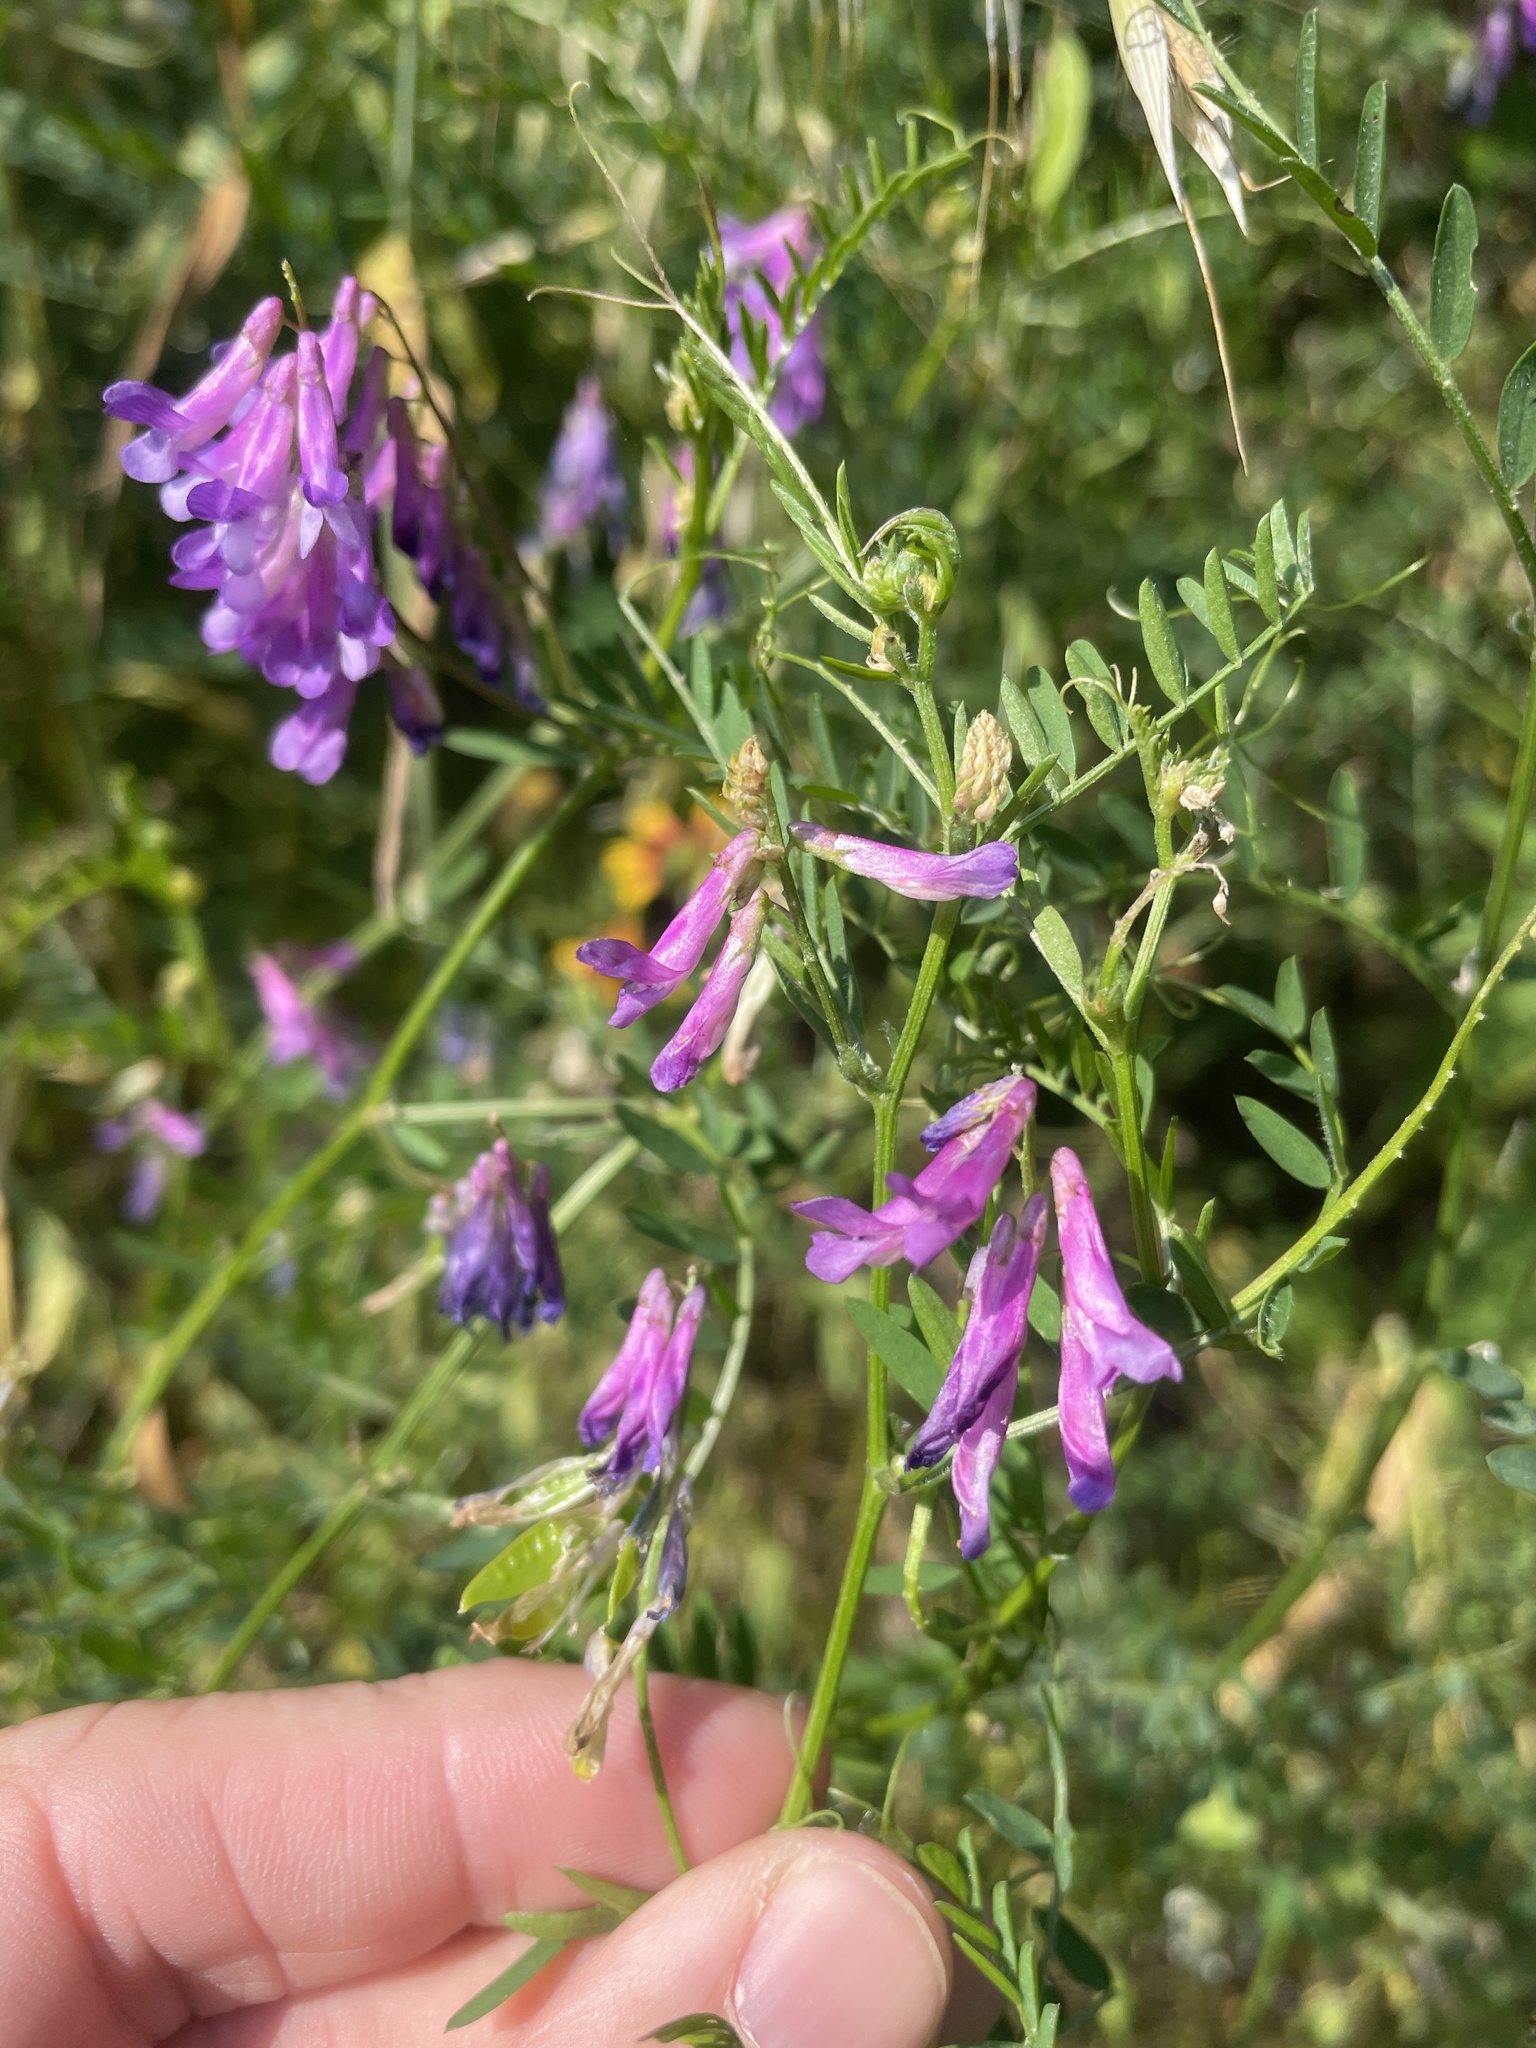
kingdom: Plantae
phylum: Tracheophyta
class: Magnoliopsida
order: Fabales
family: Fabaceae
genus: Vicia
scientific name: Vicia villosa
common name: Fodder vetch
